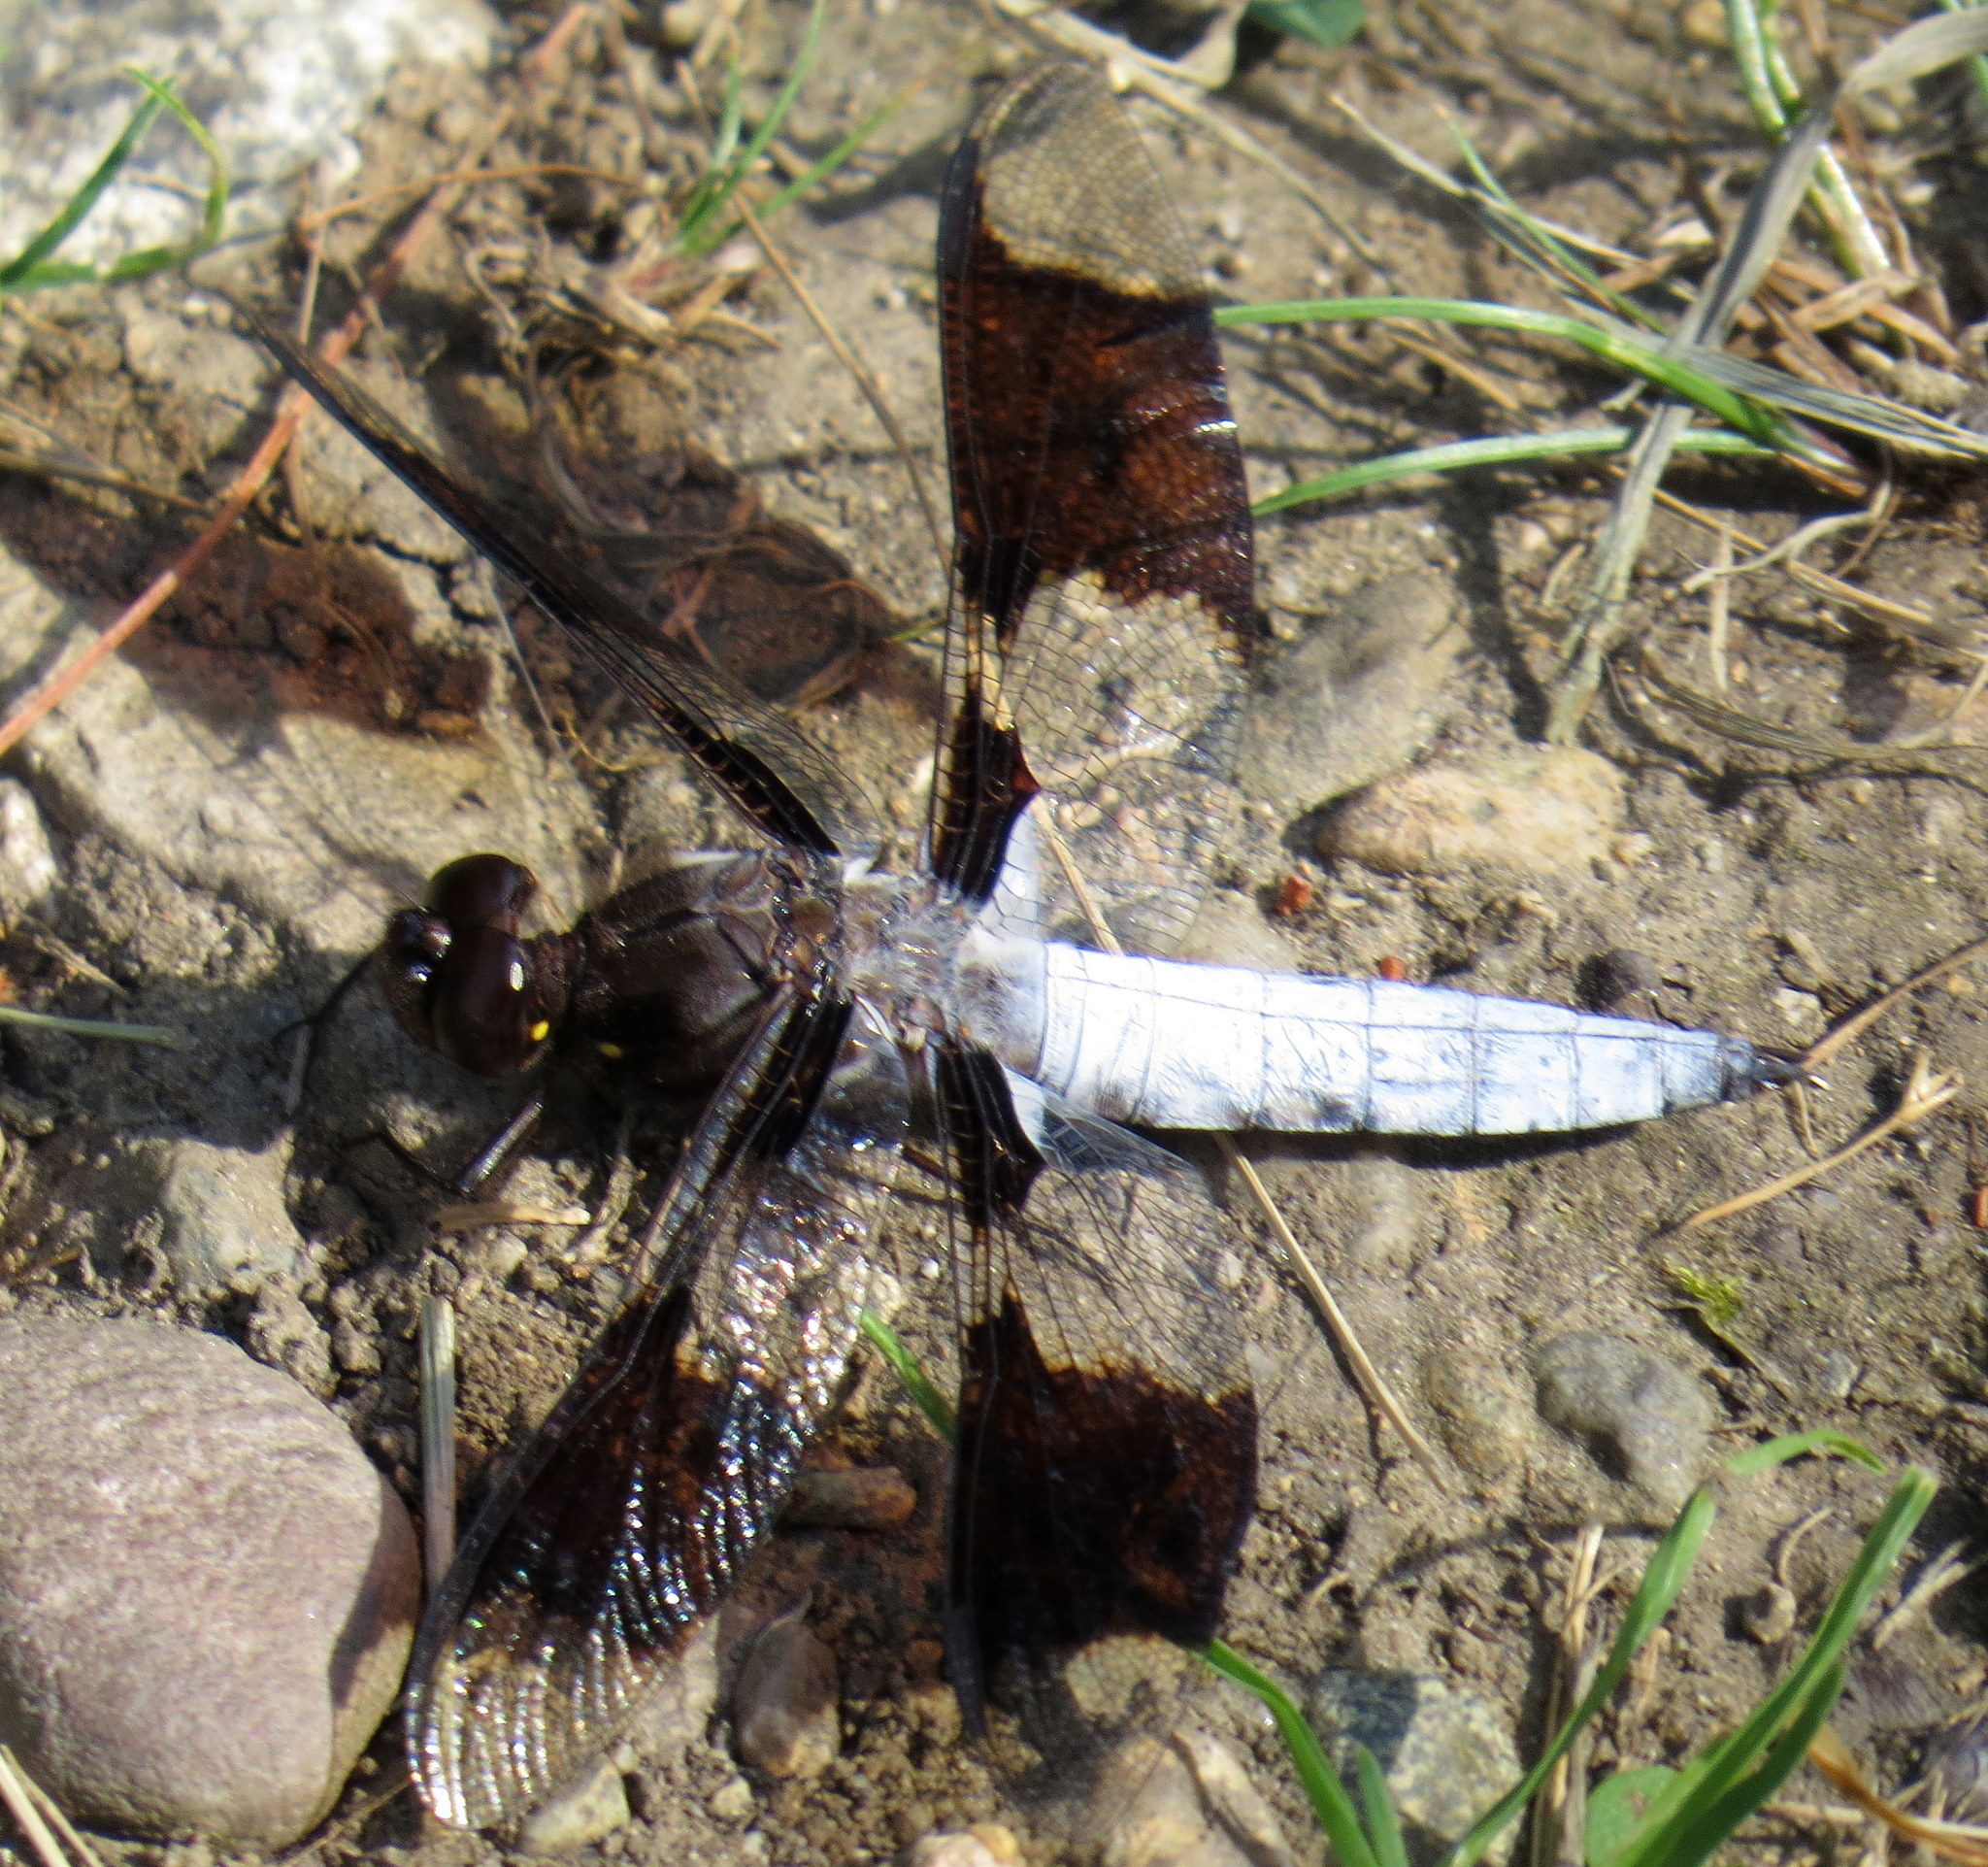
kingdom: Animalia
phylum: Arthropoda
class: Insecta
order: Odonata
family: Libellulidae
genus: Plathemis
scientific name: Plathemis lydia
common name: Common whitetail
